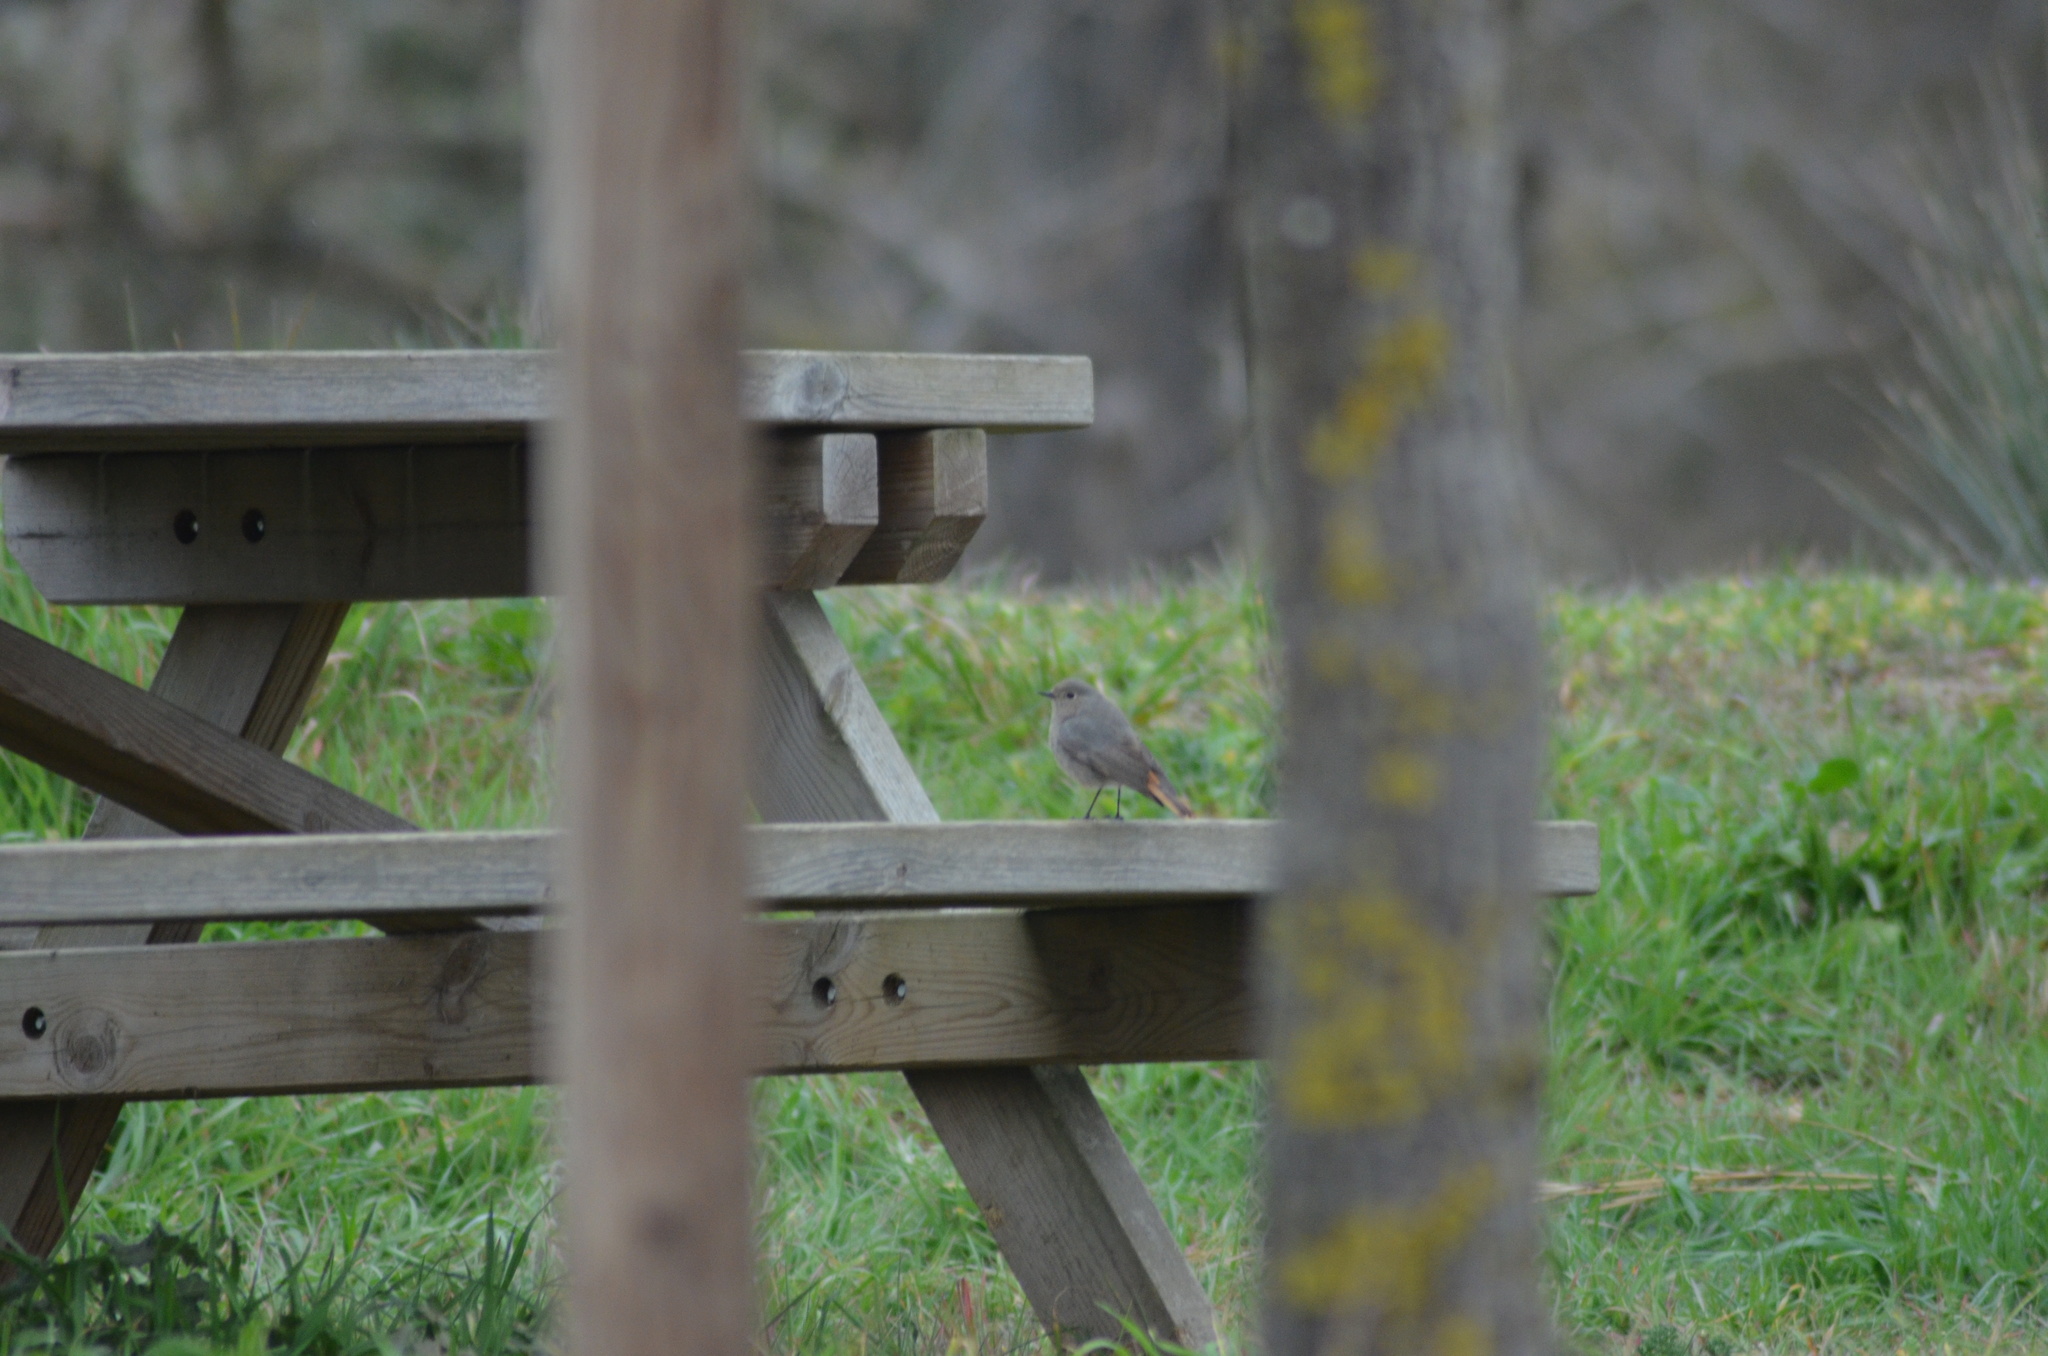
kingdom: Animalia
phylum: Chordata
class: Aves
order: Passeriformes
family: Muscicapidae
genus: Phoenicurus
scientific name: Phoenicurus ochruros
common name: Black redstart
